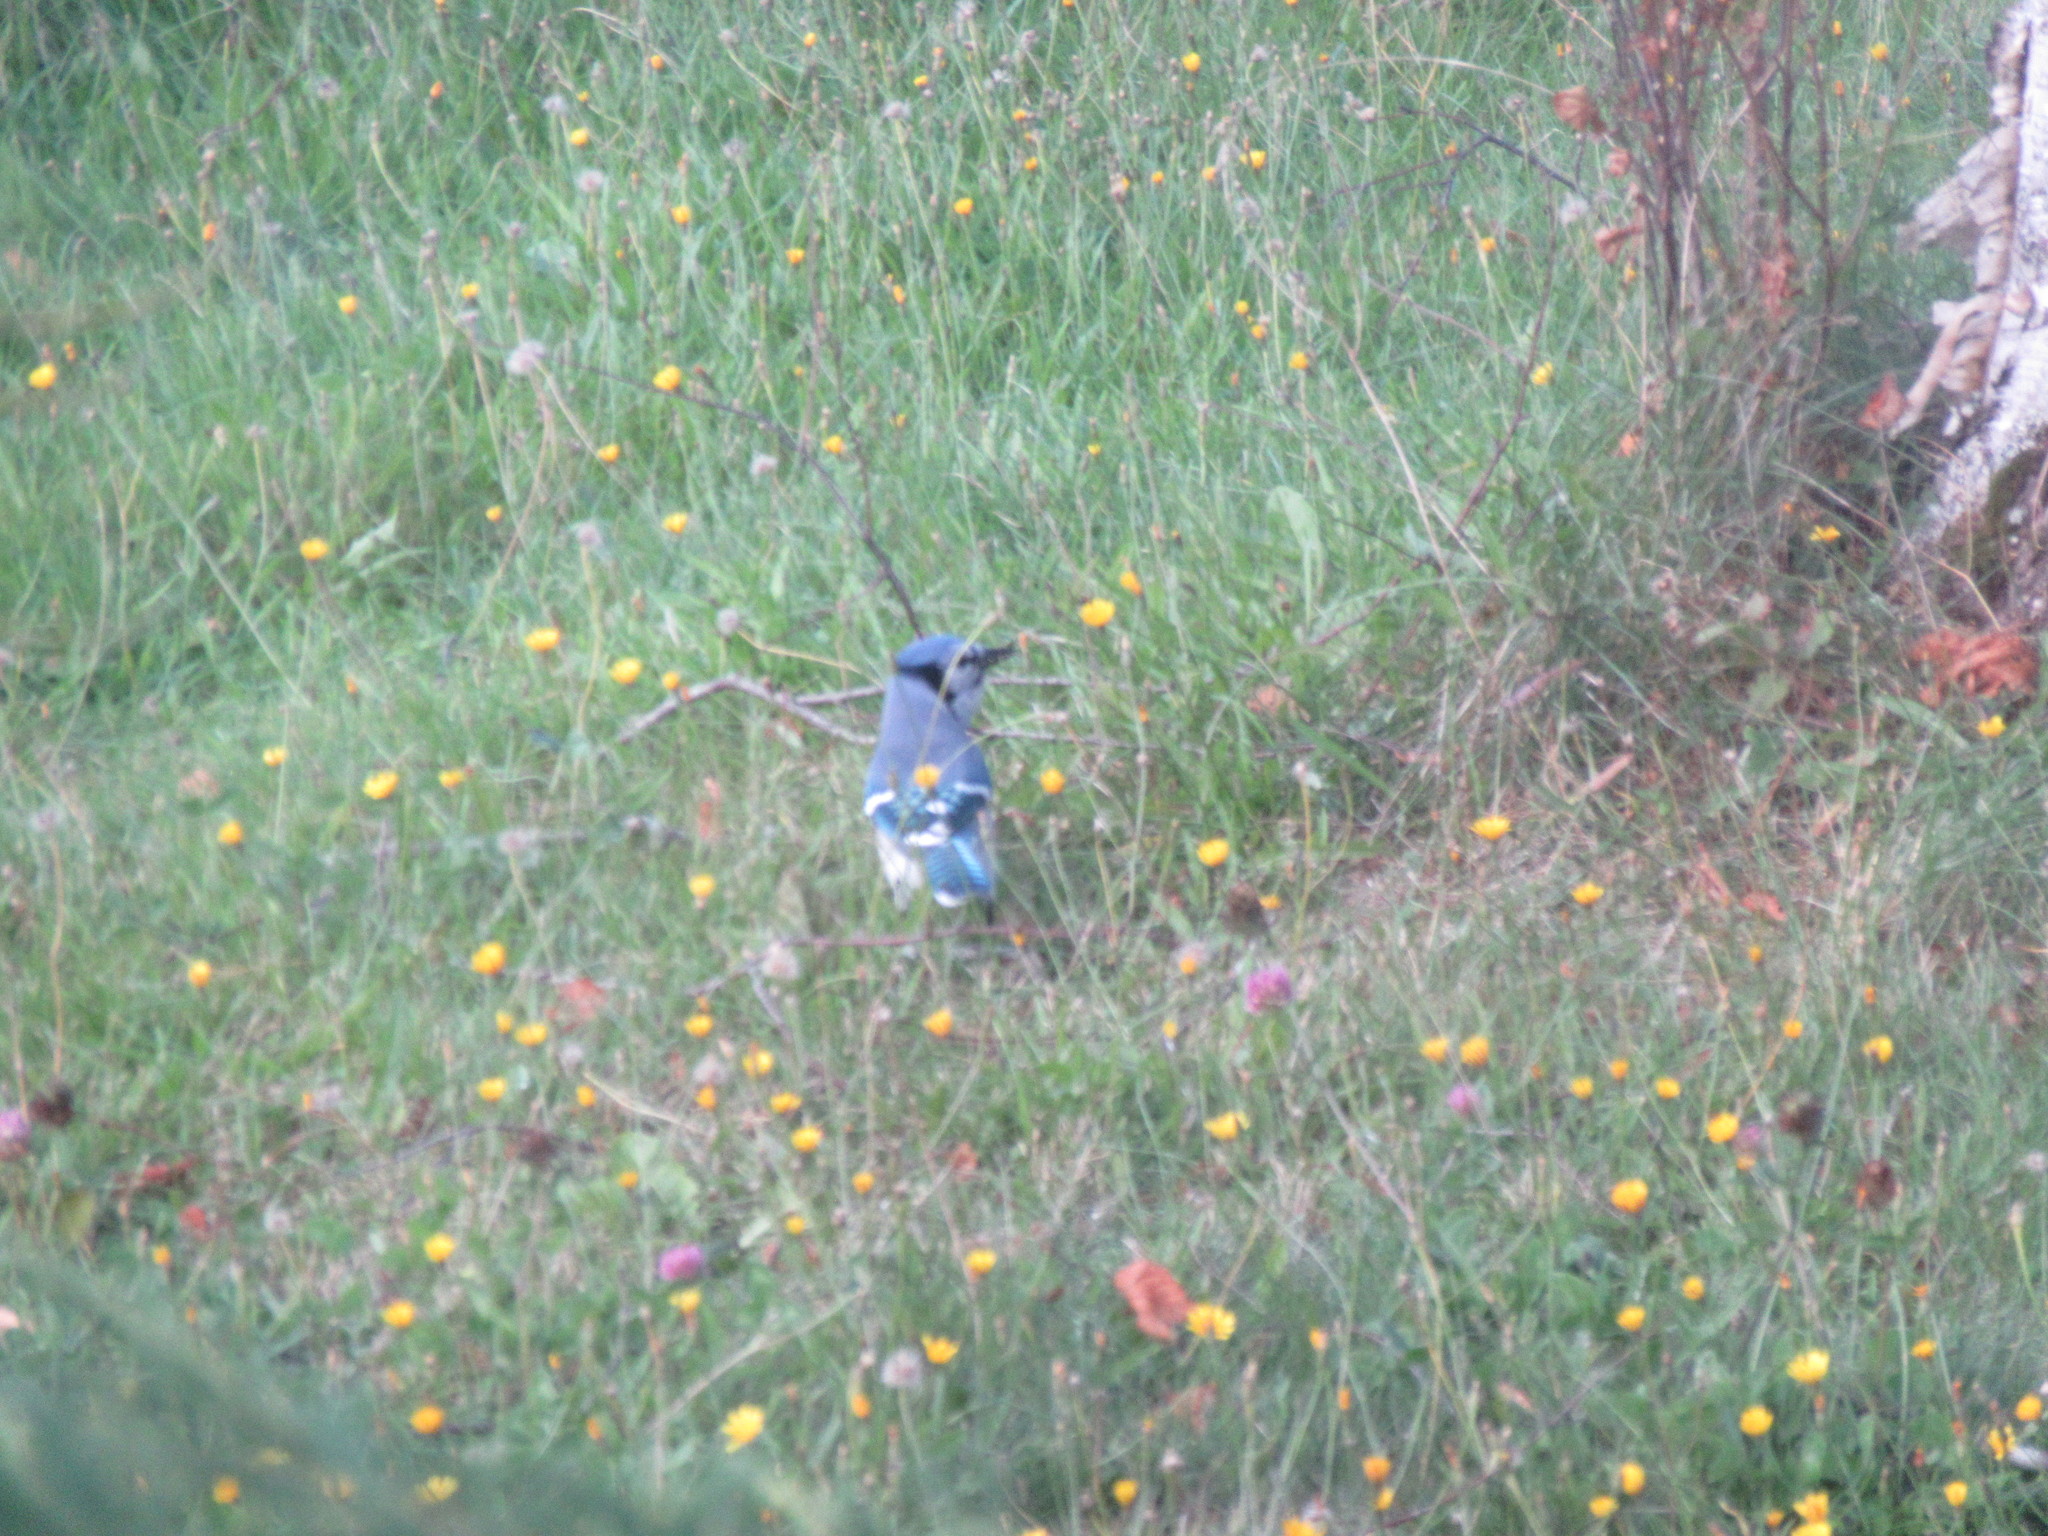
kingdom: Animalia
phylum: Chordata
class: Aves
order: Passeriformes
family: Corvidae
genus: Cyanocitta
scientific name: Cyanocitta cristata
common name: Blue jay
